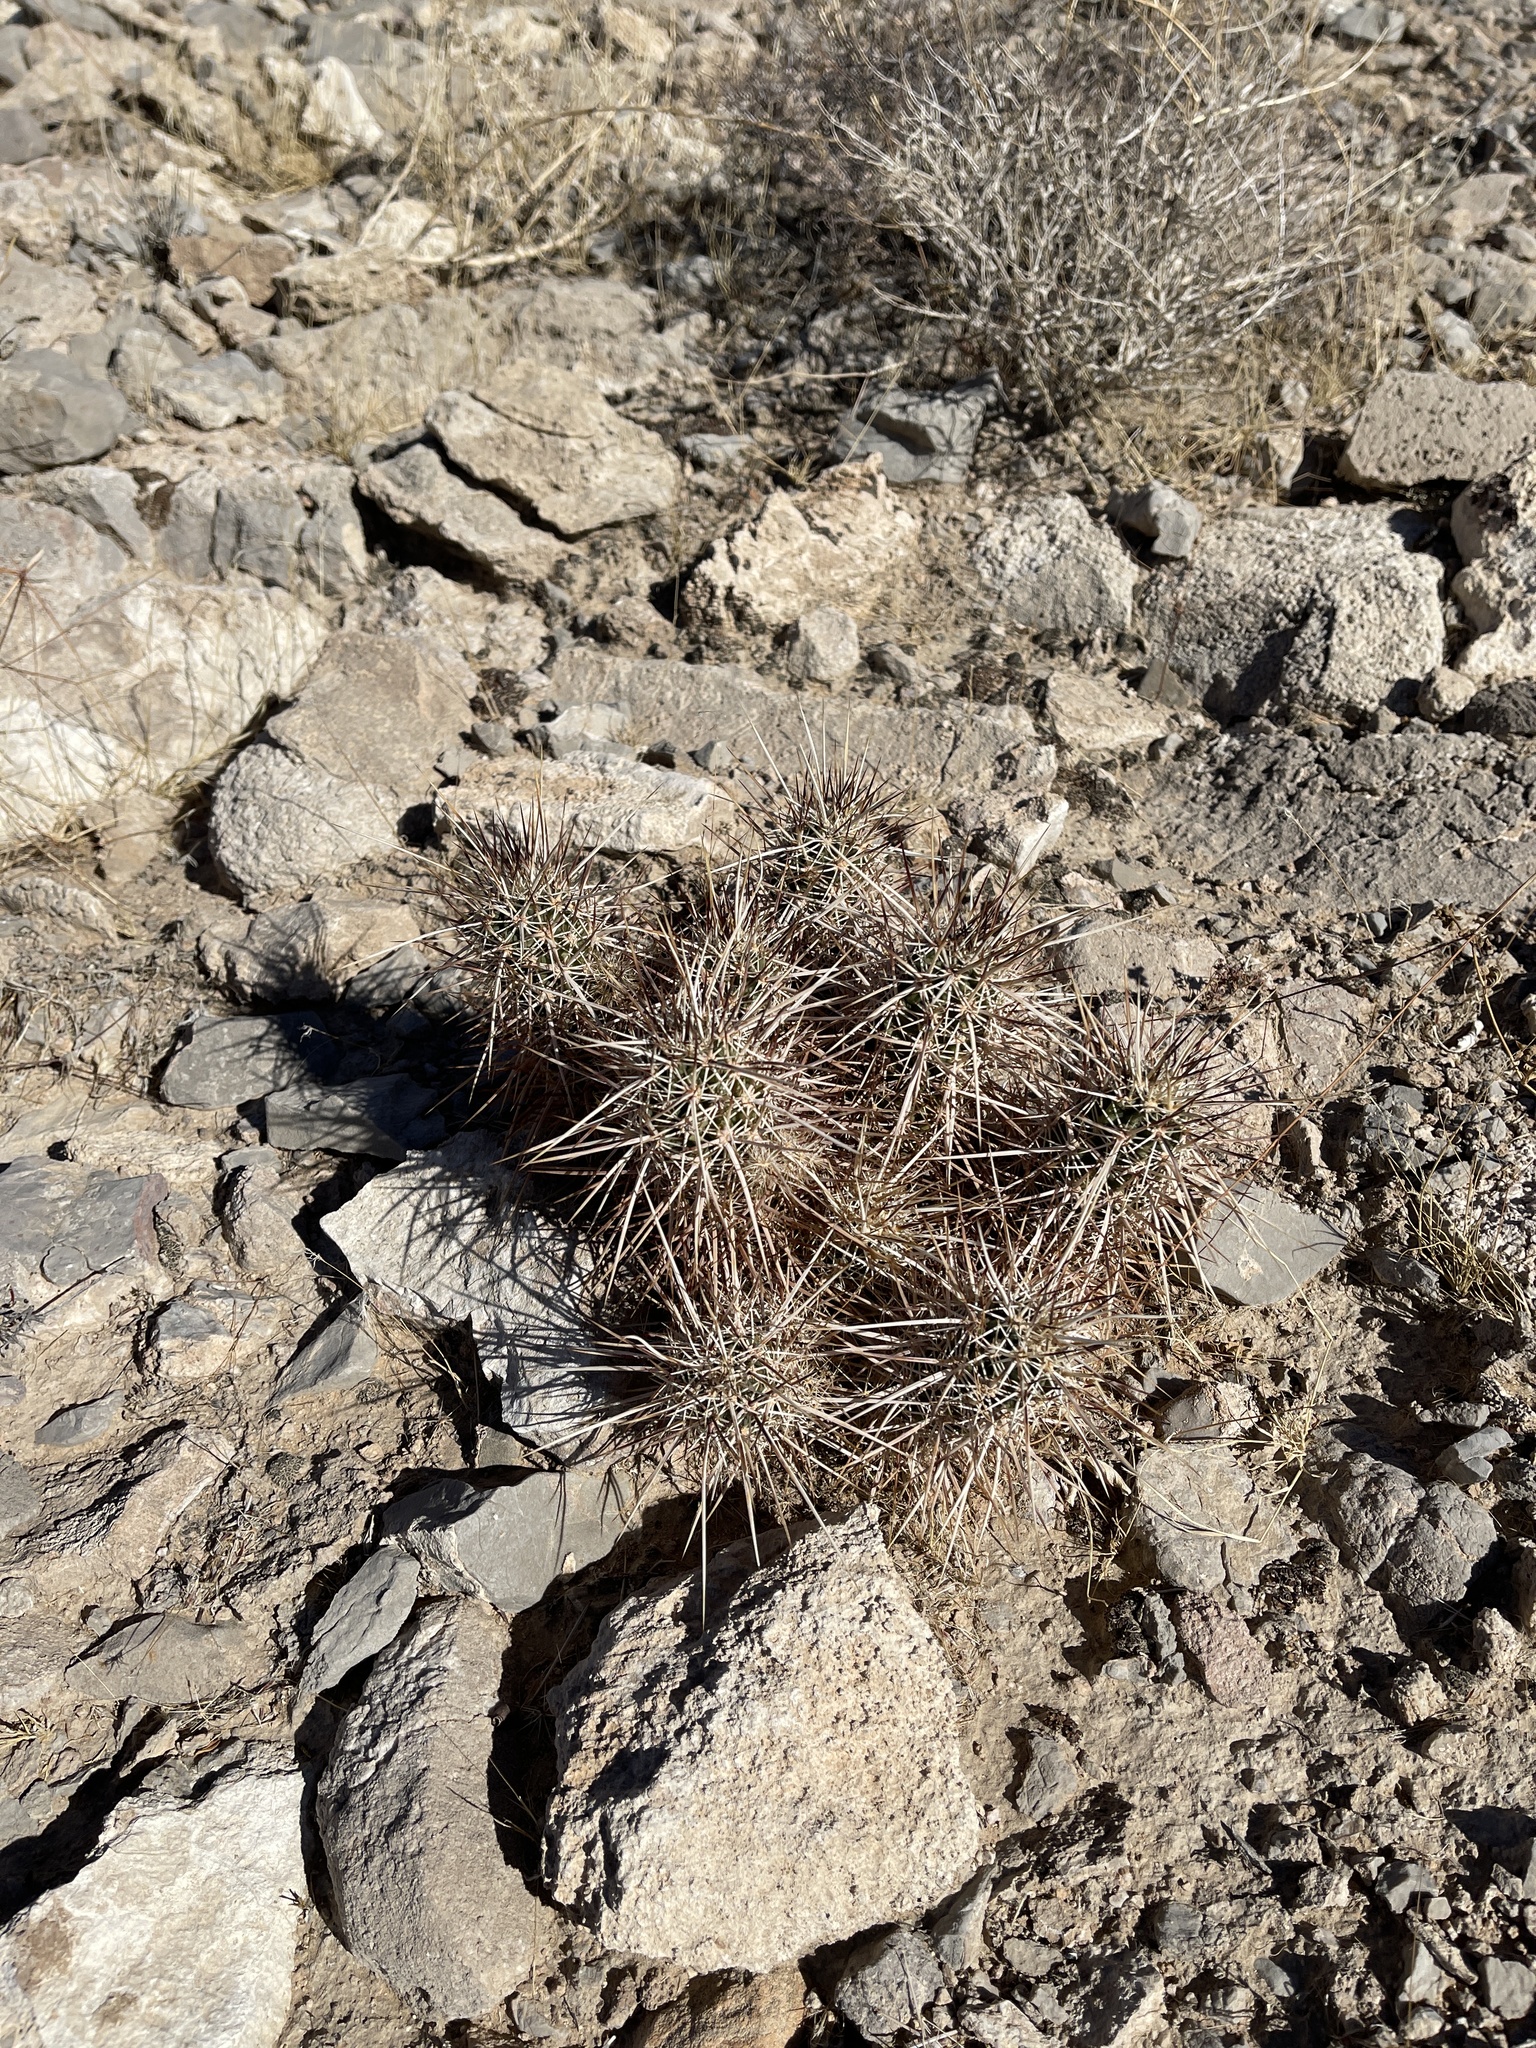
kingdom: Plantae
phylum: Tracheophyta
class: Magnoliopsida
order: Caryophyllales
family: Cactaceae
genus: Echinocereus
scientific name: Echinocereus engelmannii
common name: Engelmann's hedgehog cactus
